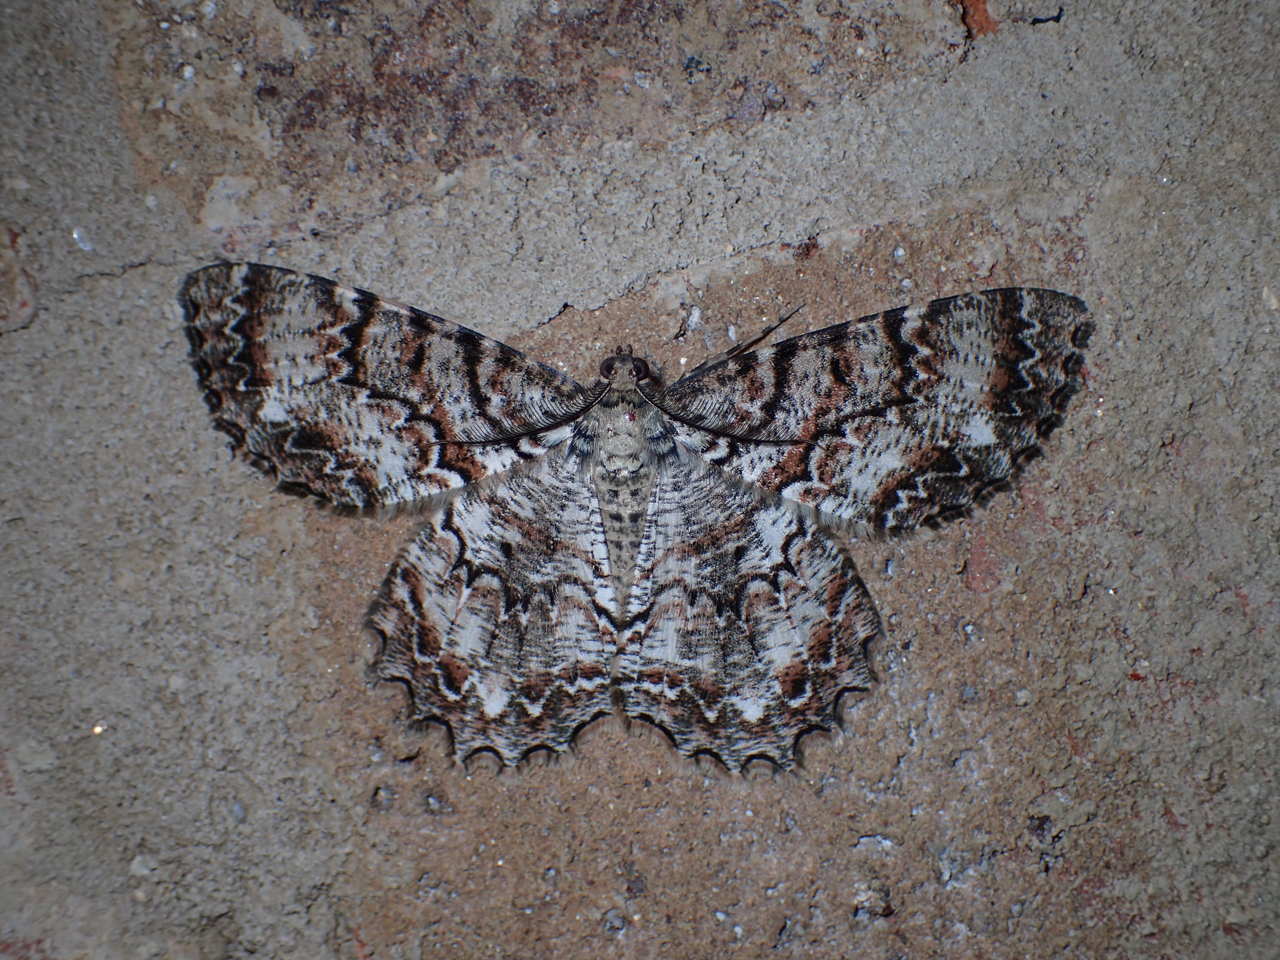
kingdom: Animalia
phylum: Arthropoda
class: Insecta
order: Lepidoptera
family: Geometridae
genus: Epimecis
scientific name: Epimecis hortaria
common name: Tulip-tree beauty
